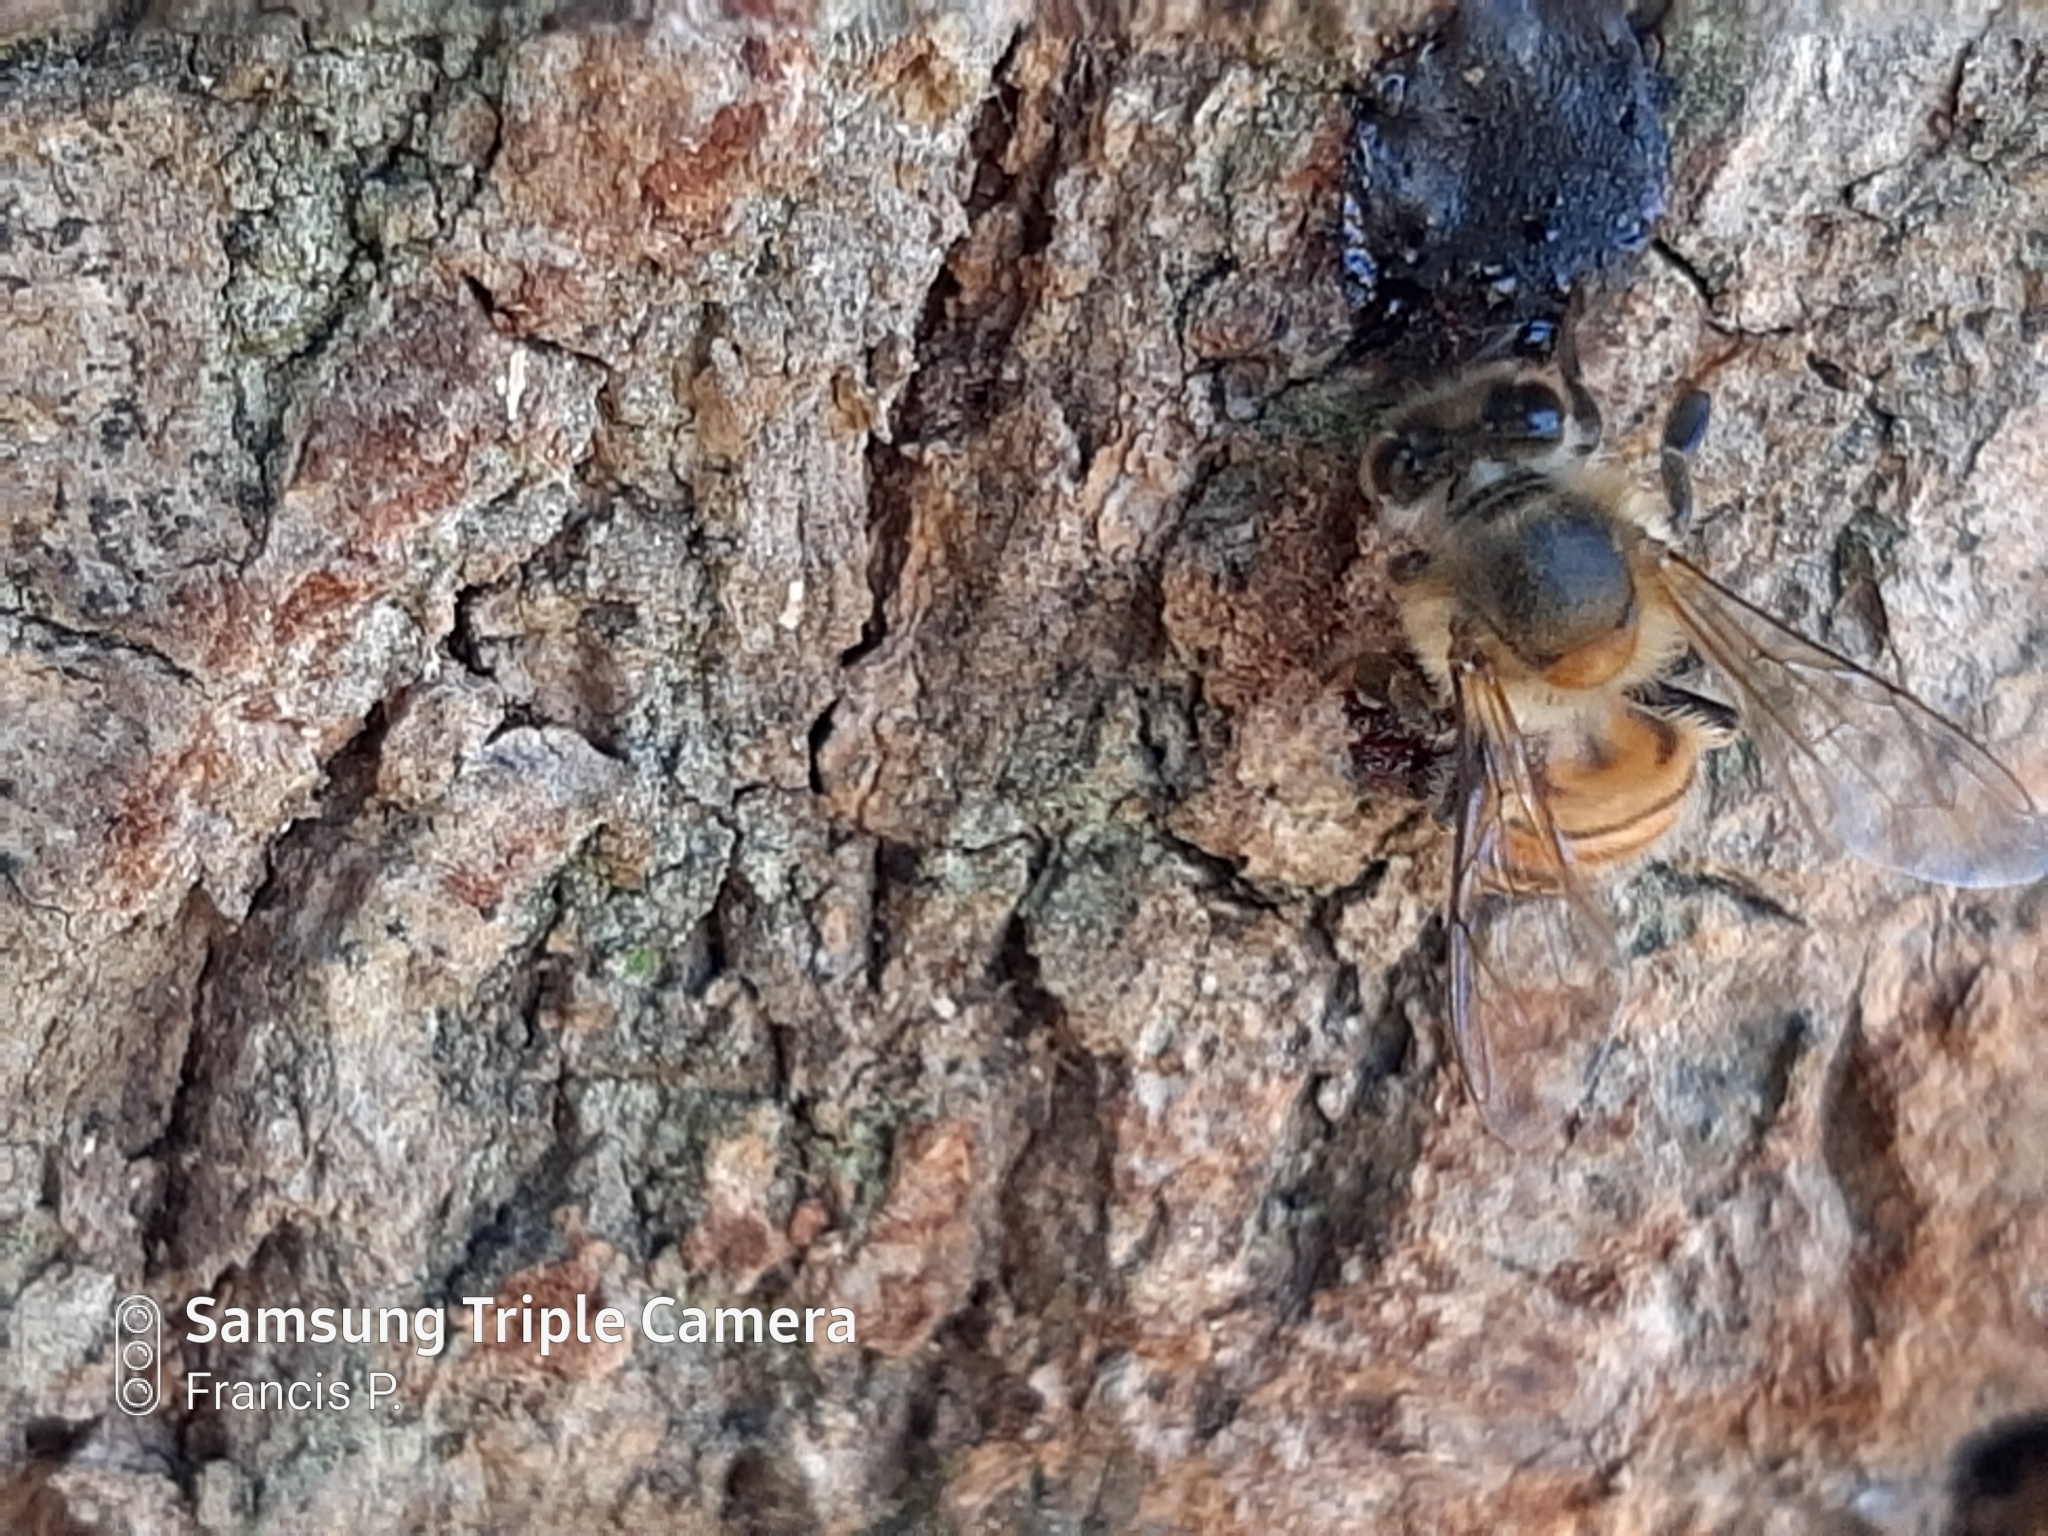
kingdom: Animalia
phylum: Arthropoda
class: Insecta
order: Hymenoptera
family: Apidae
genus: Apis
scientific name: Apis mellifera
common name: Honey bee
